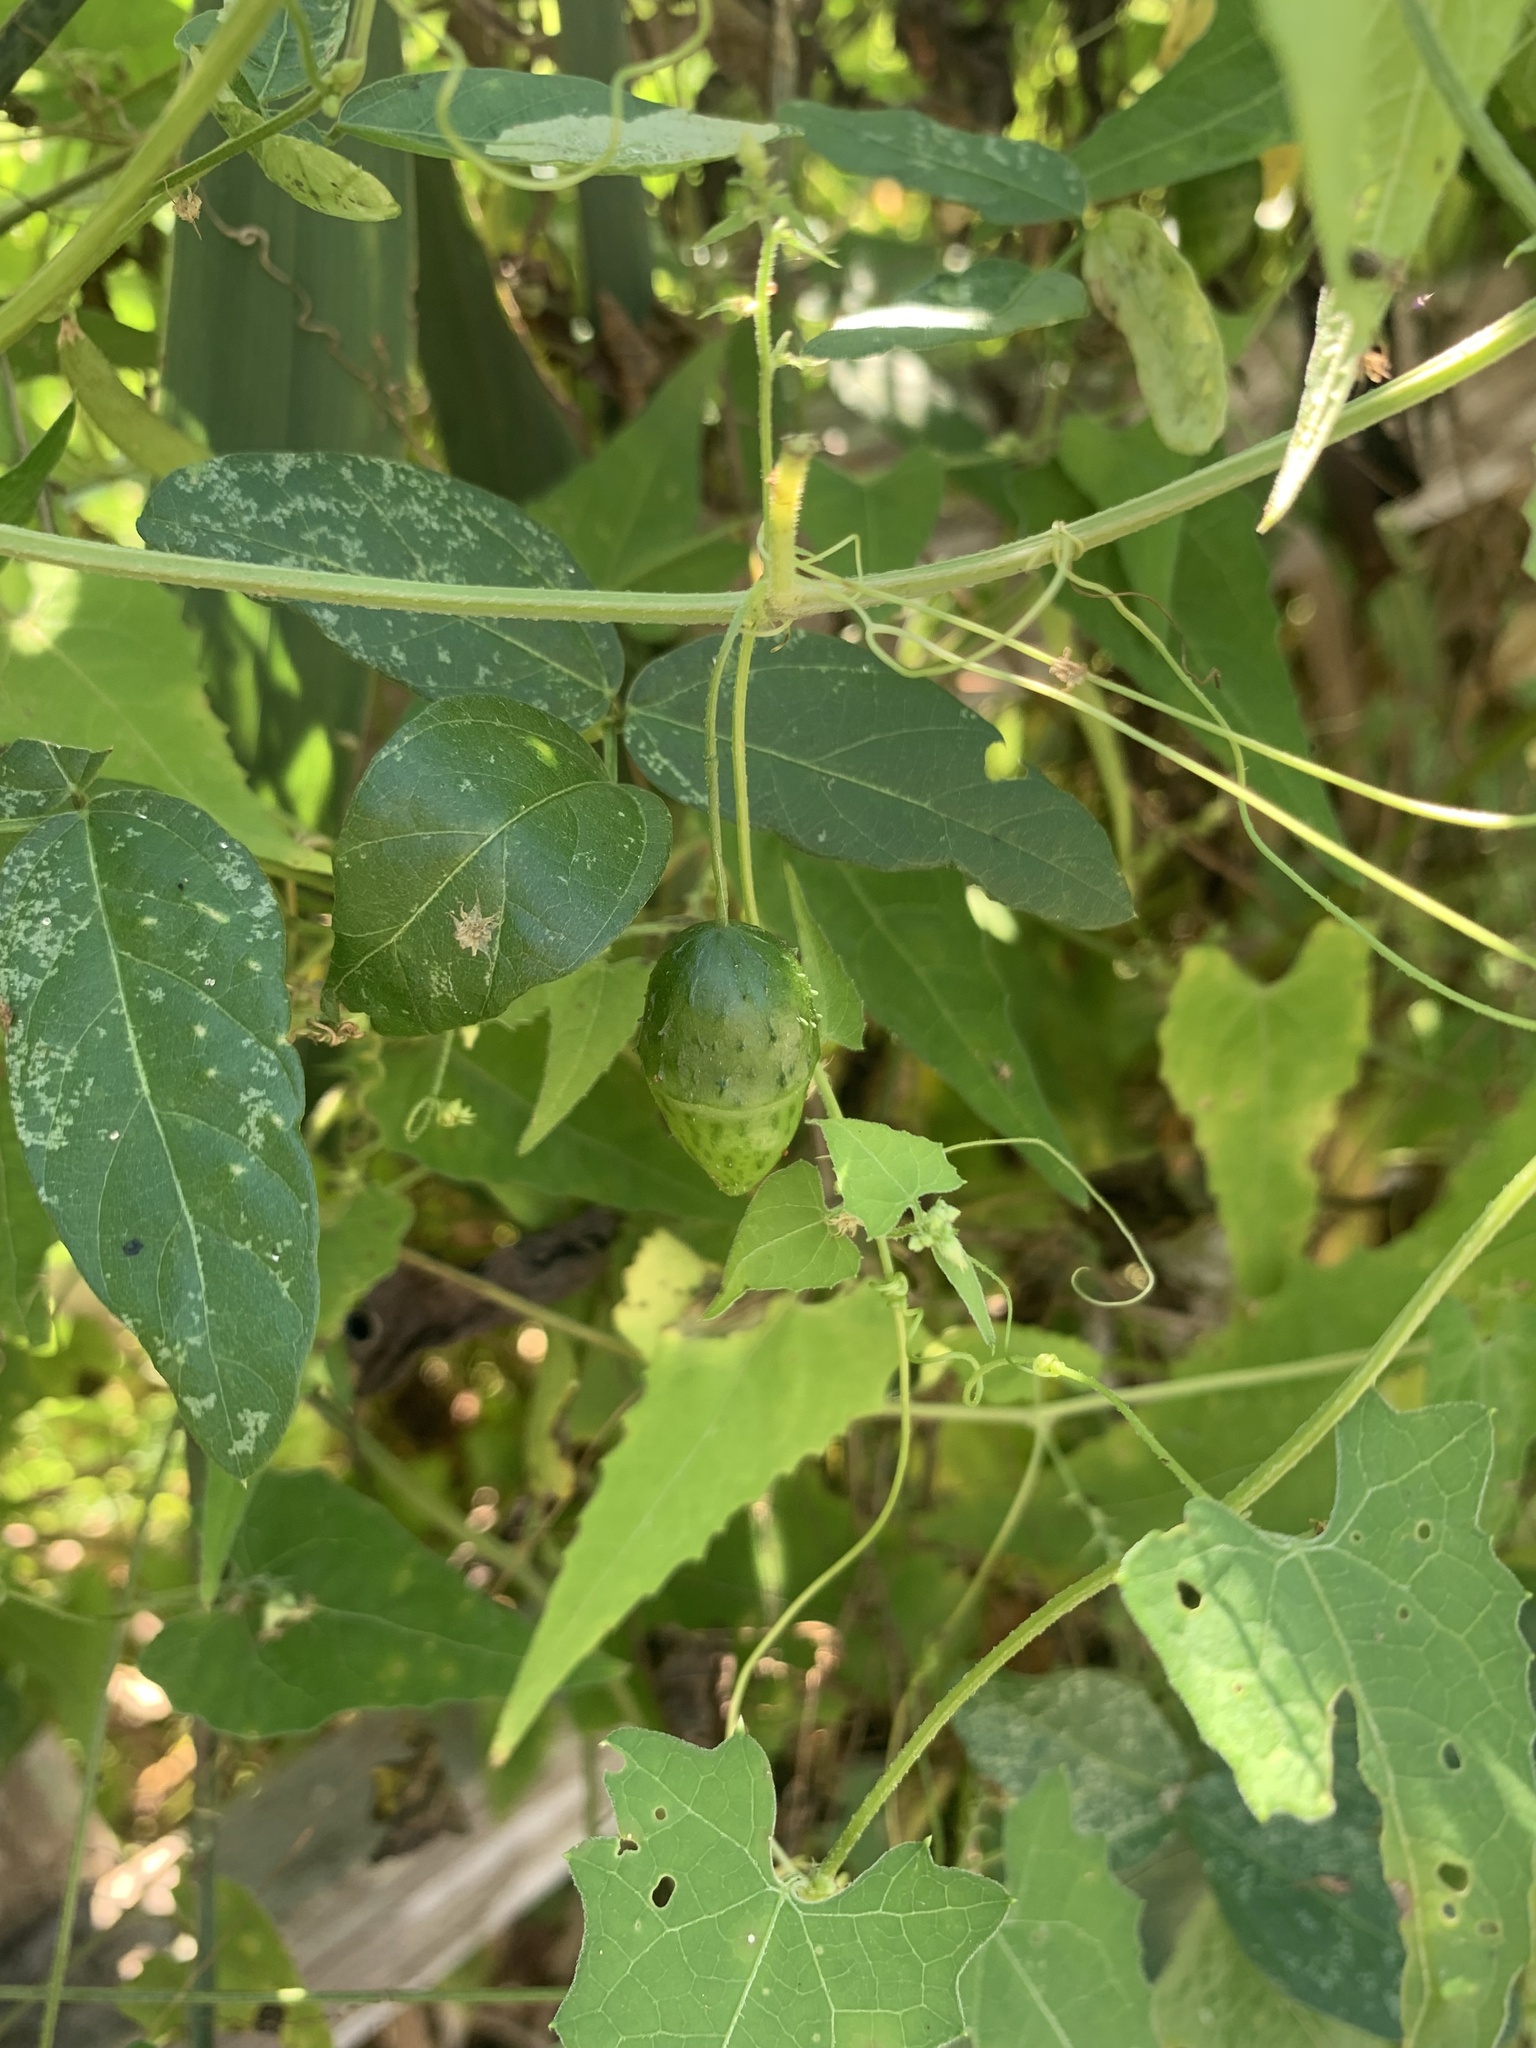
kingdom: Plantae
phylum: Tracheophyta
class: Magnoliopsida
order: Cucurbitales
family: Cucurbitaceae
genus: Actinostemma
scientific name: Actinostemma tenerum
